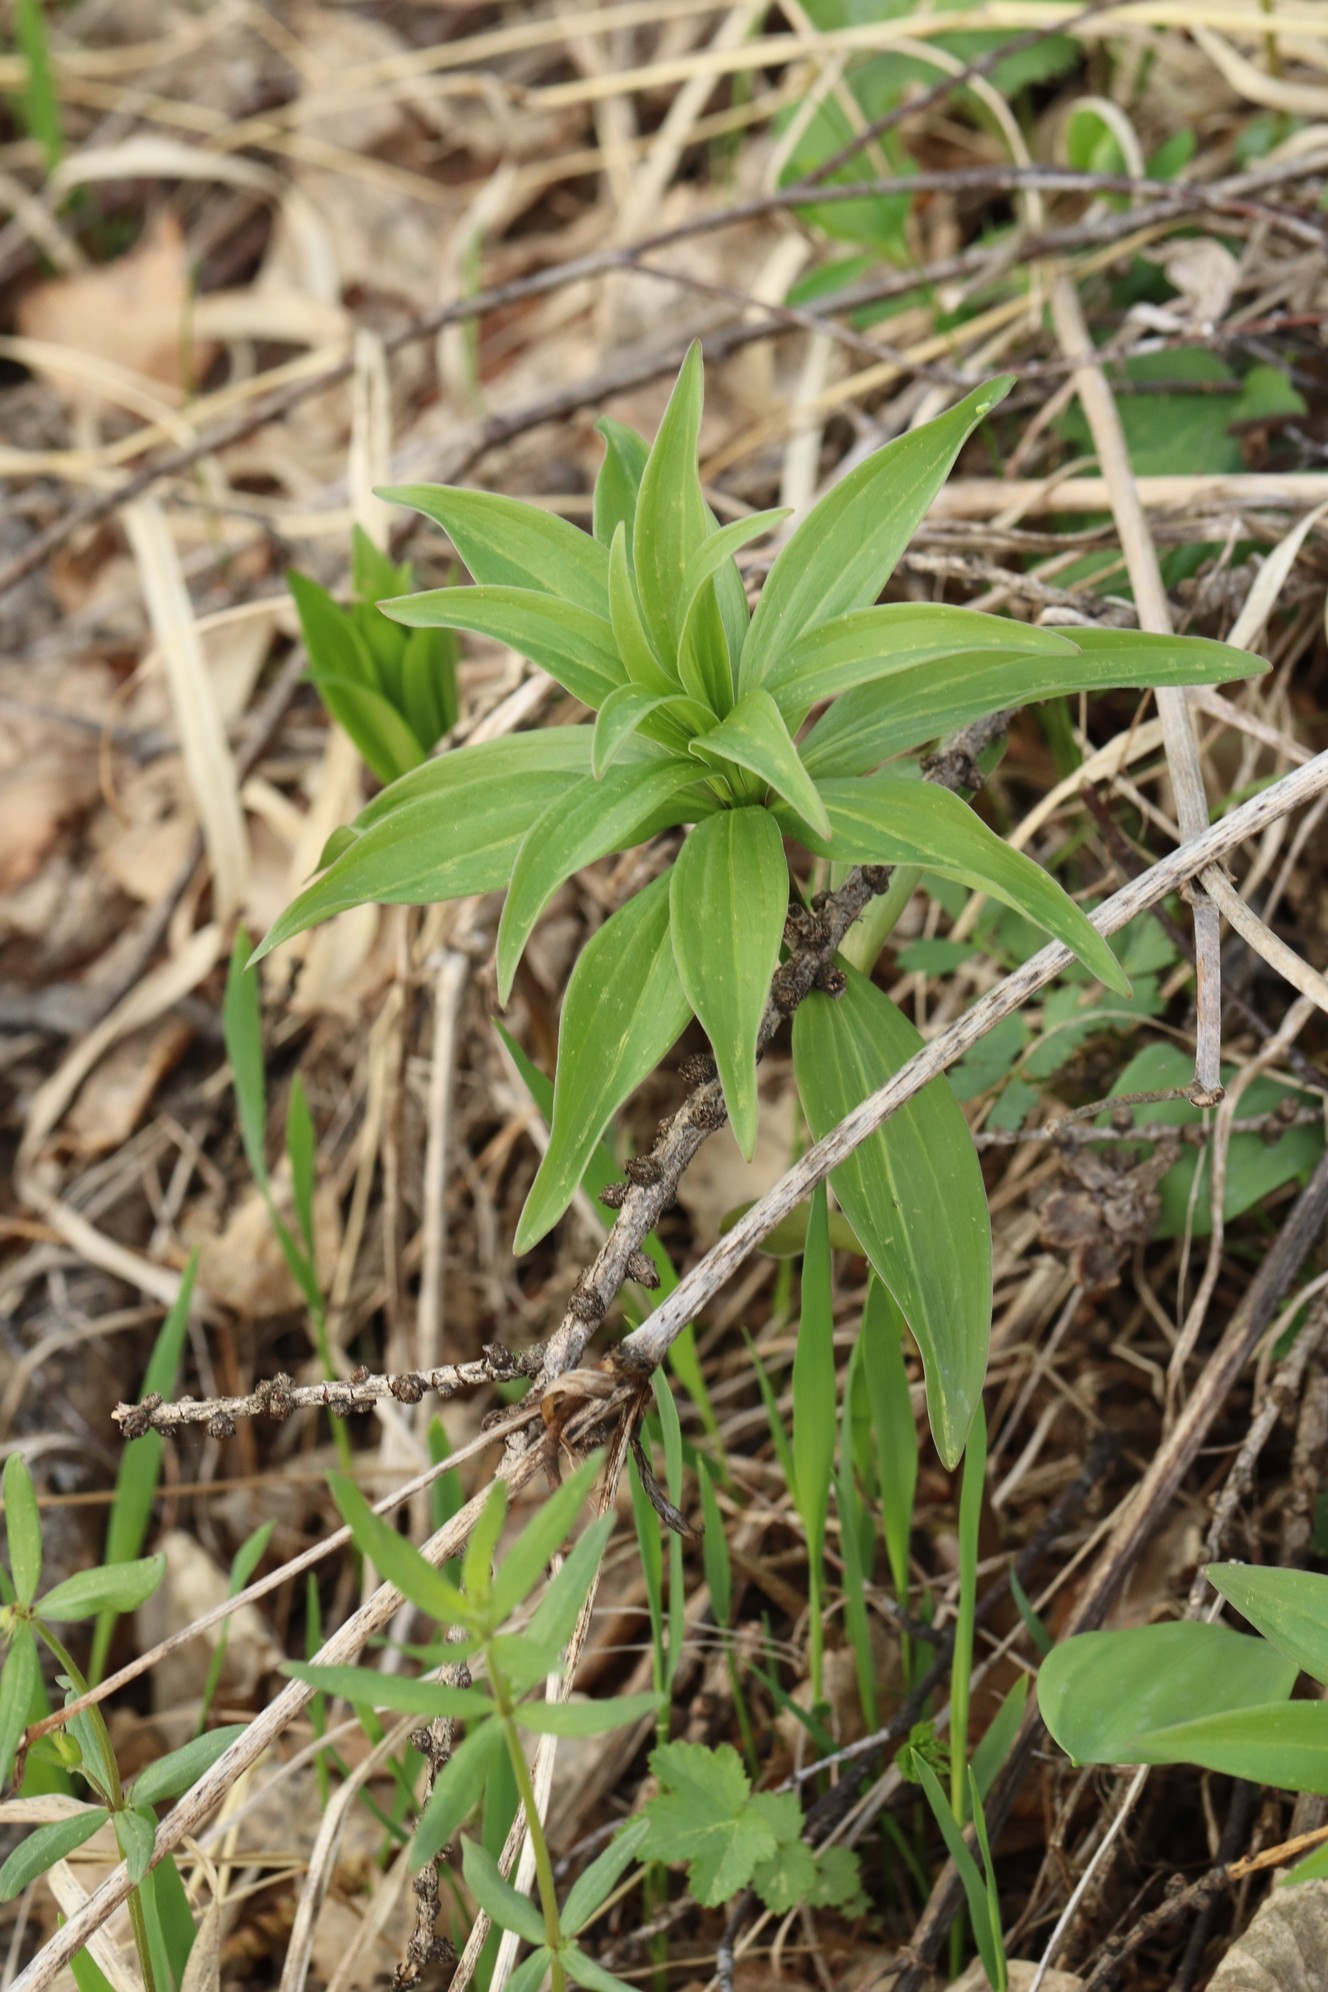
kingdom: Plantae
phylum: Tracheophyta
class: Liliopsida
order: Liliales
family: Liliaceae
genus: Lilium
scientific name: Lilium martagon
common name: Martagon lily
